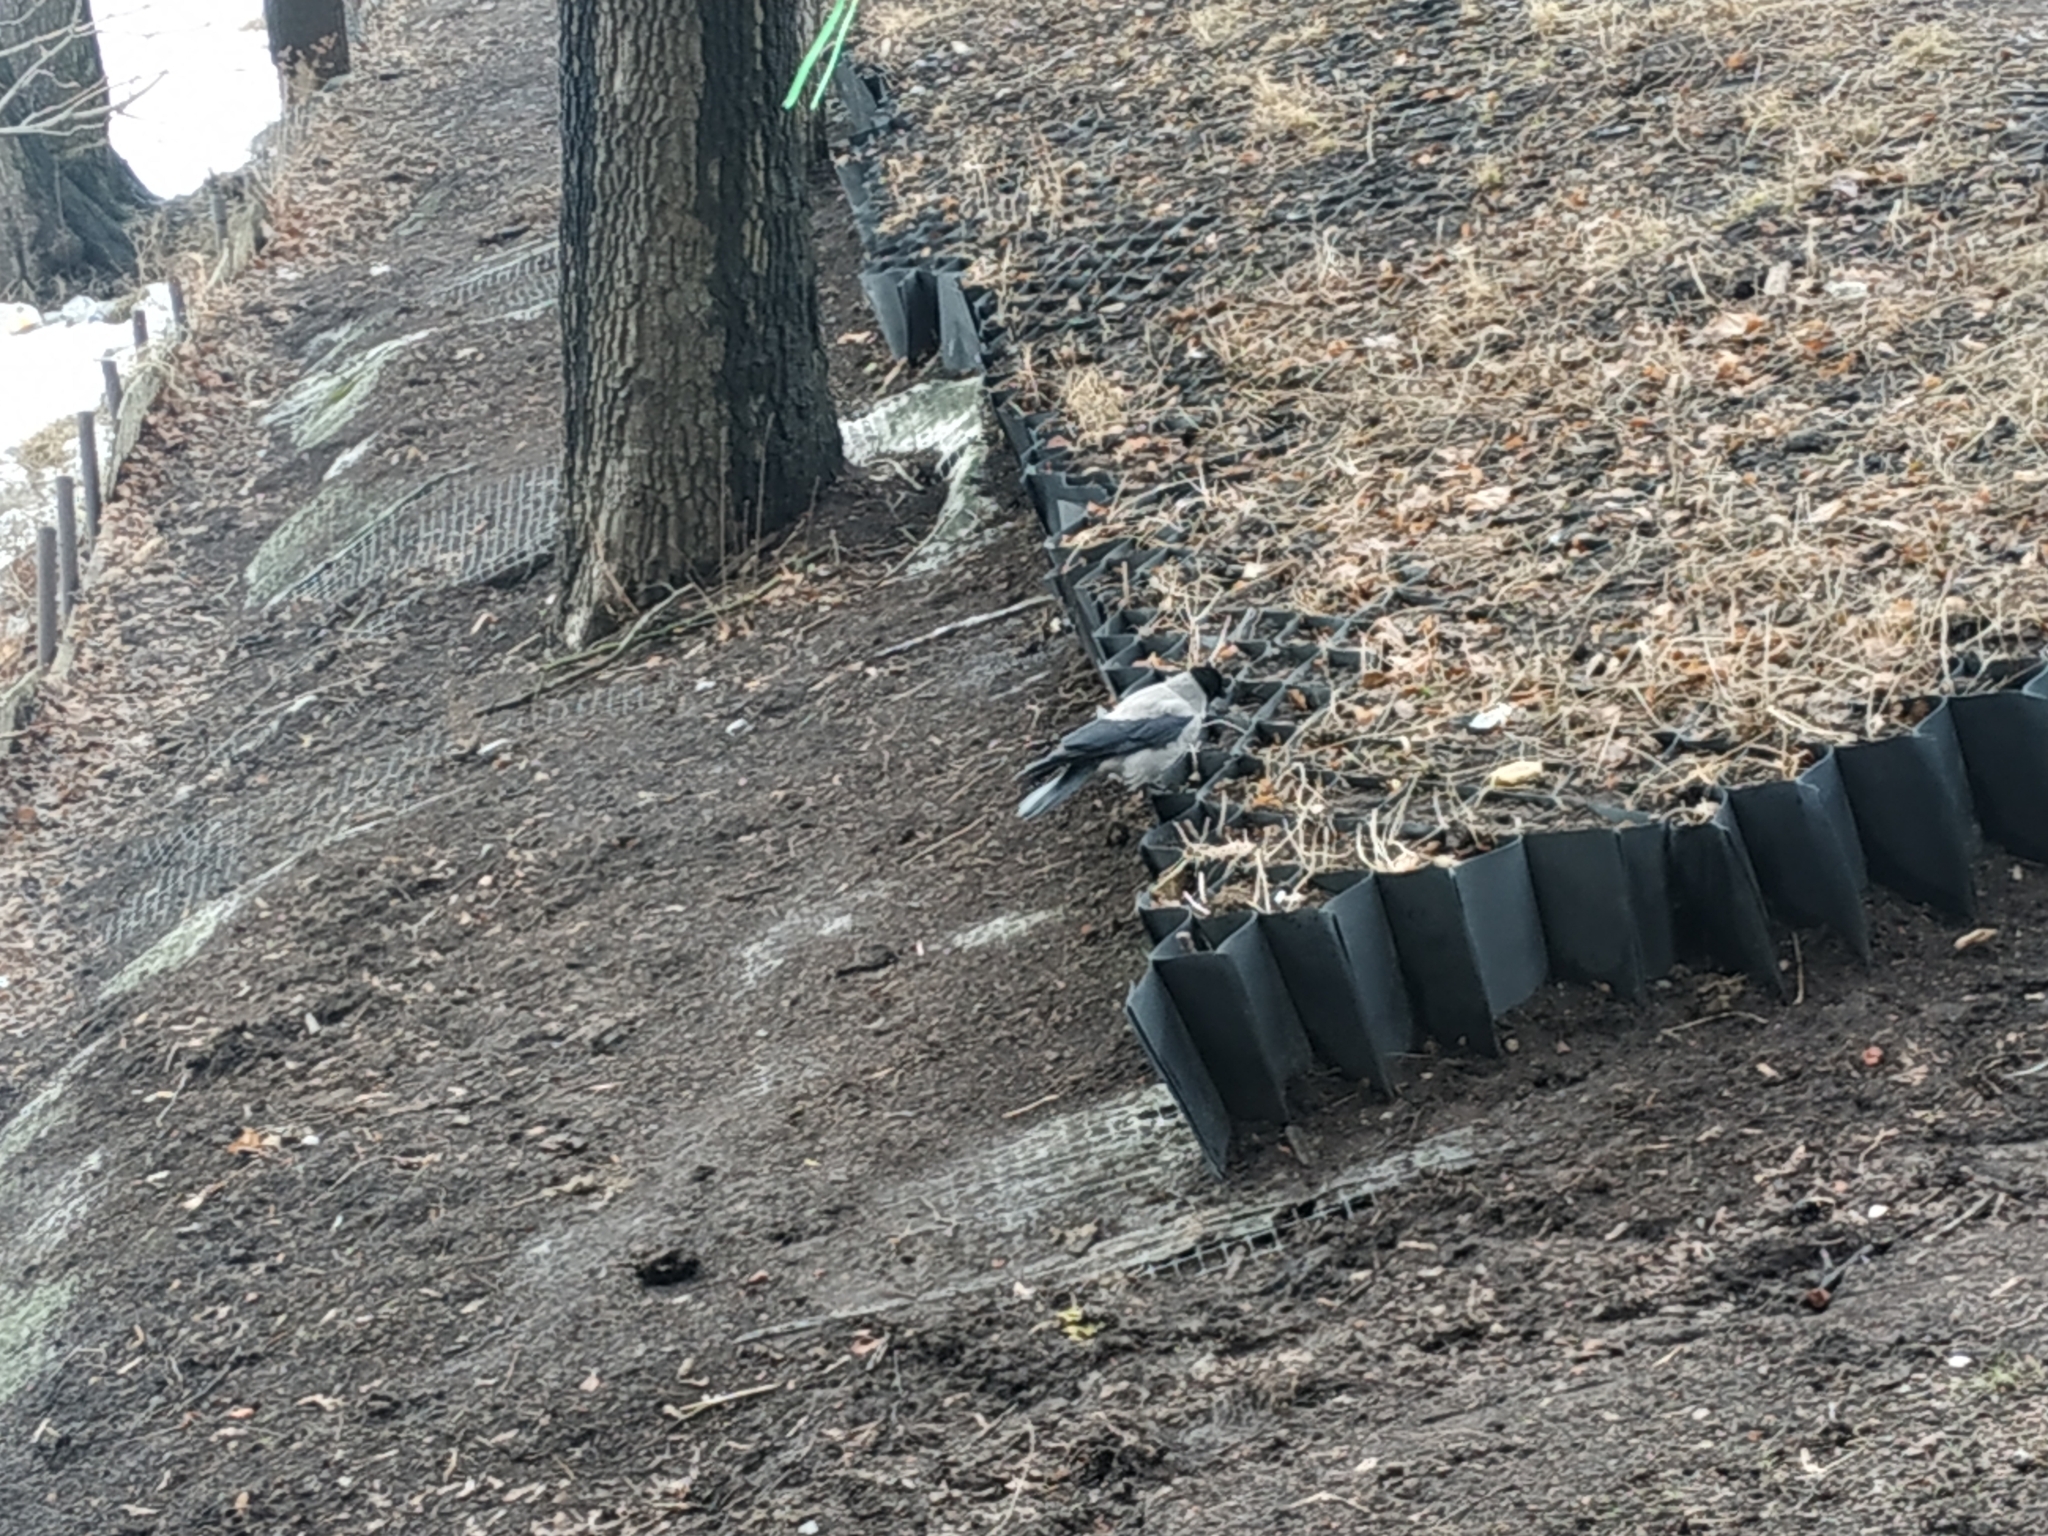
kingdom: Animalia
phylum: Chordata
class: Aves
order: Passeriformes
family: Corvidae
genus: Corvus
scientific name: Corvus cornix
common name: Hooded crow
